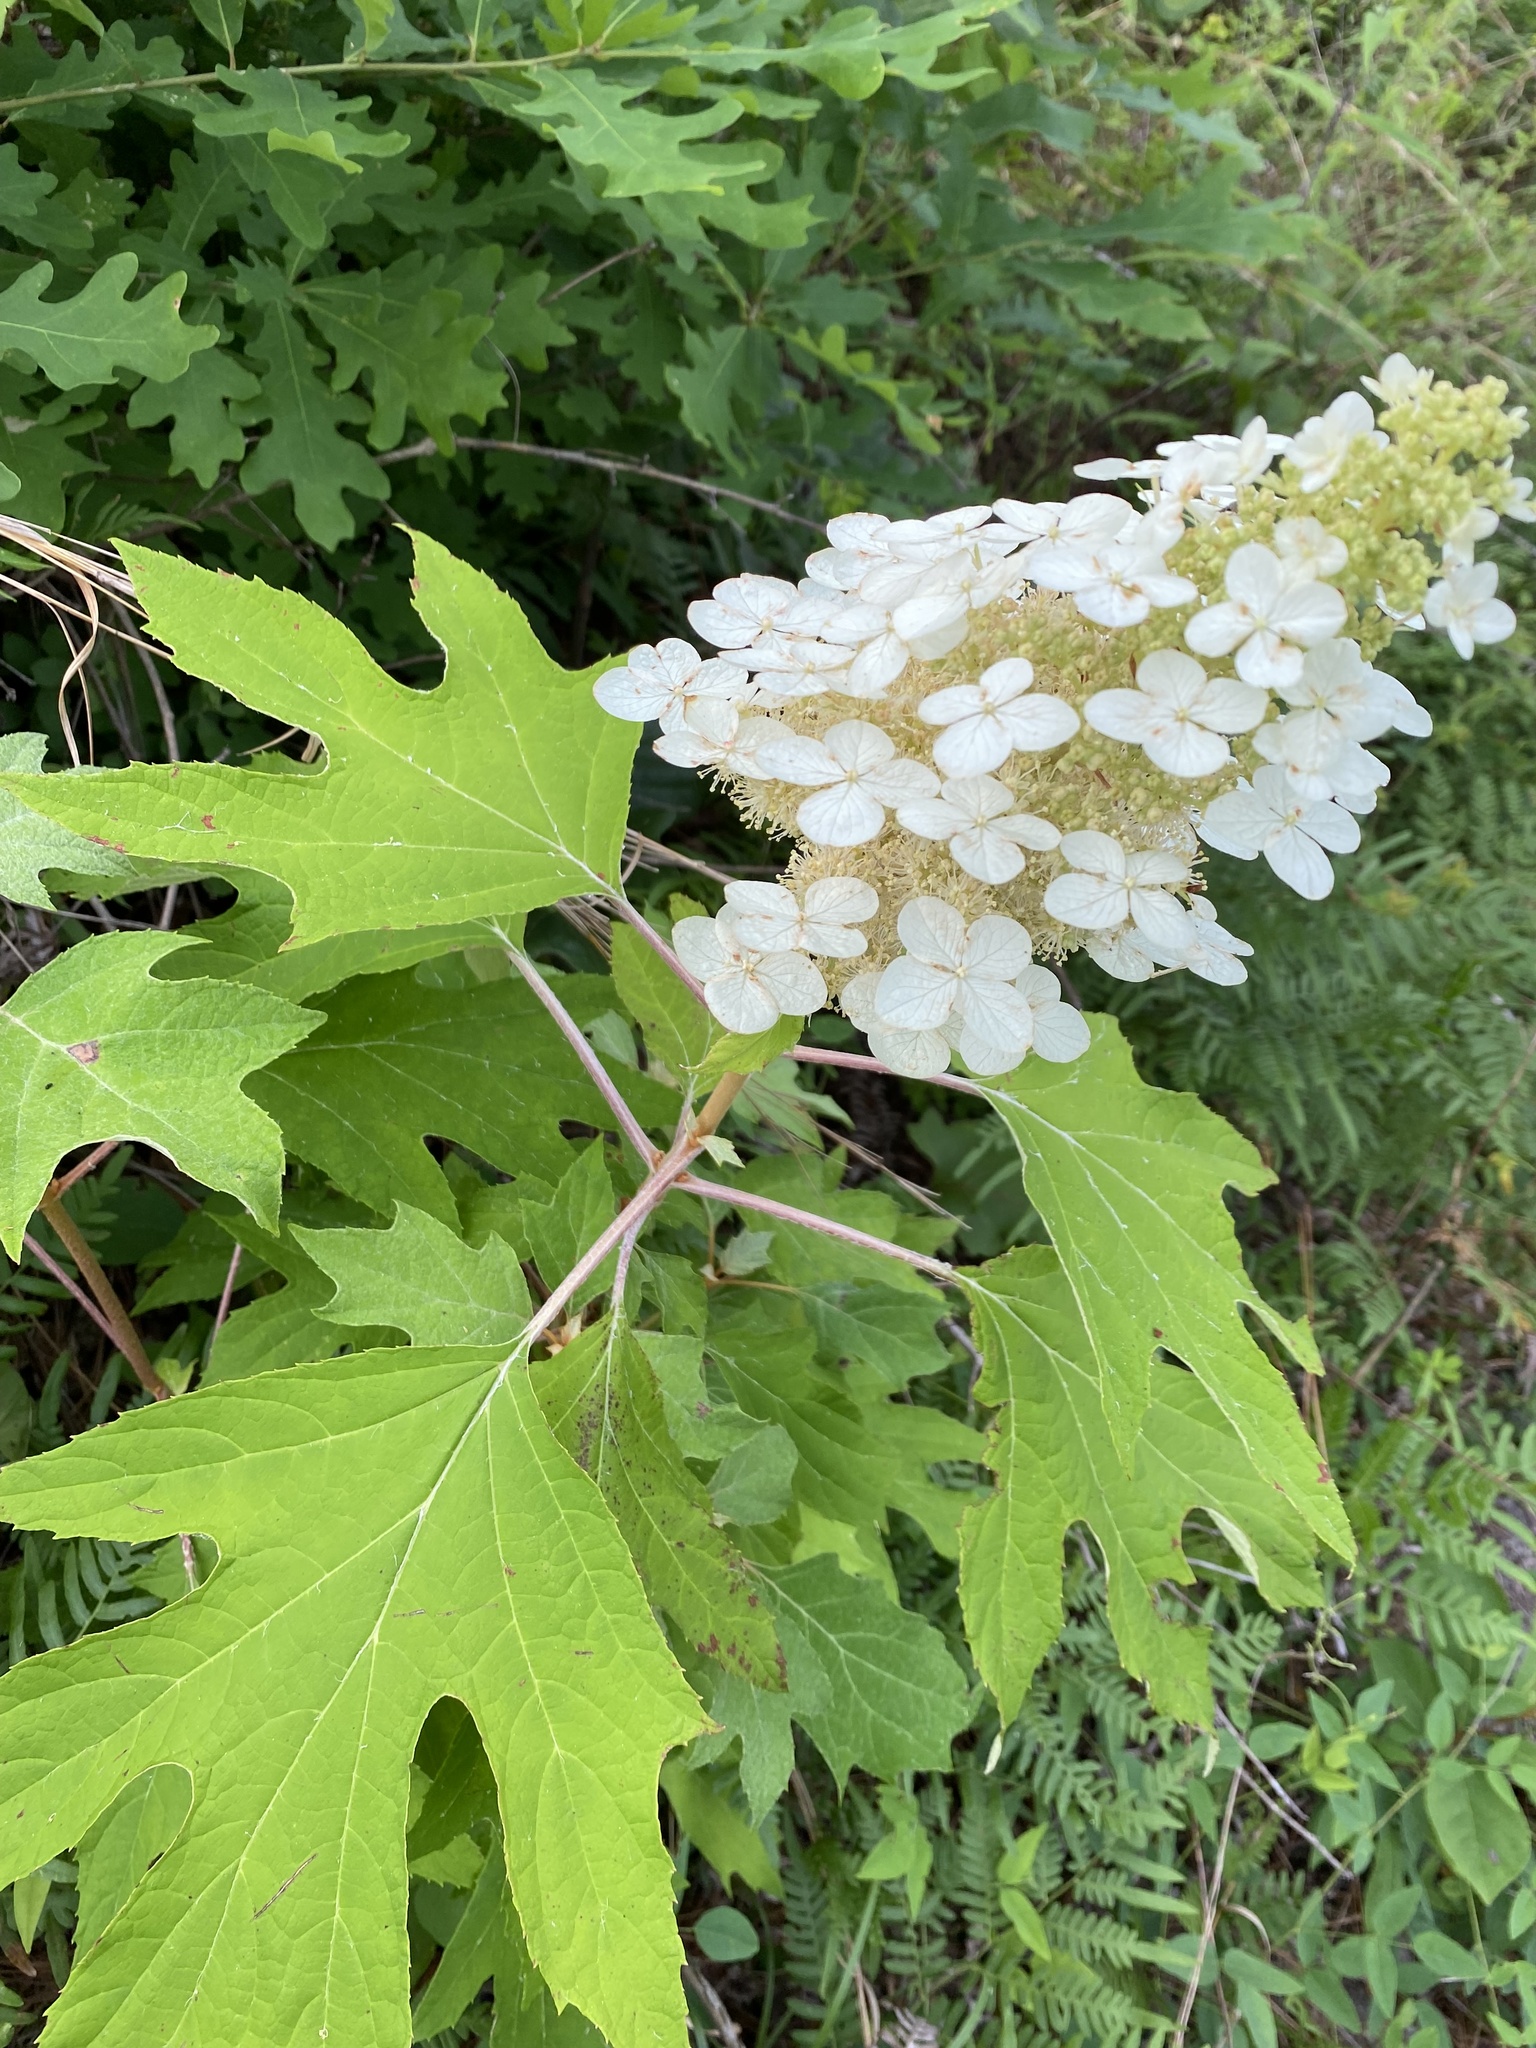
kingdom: Plantae
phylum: Tracheophyta
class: Magnoliopsida
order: Cornales
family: Hydrangeaceae
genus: Hydrangea
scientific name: Hydrangea quercifolia
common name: Oak-leaf hydrangea
